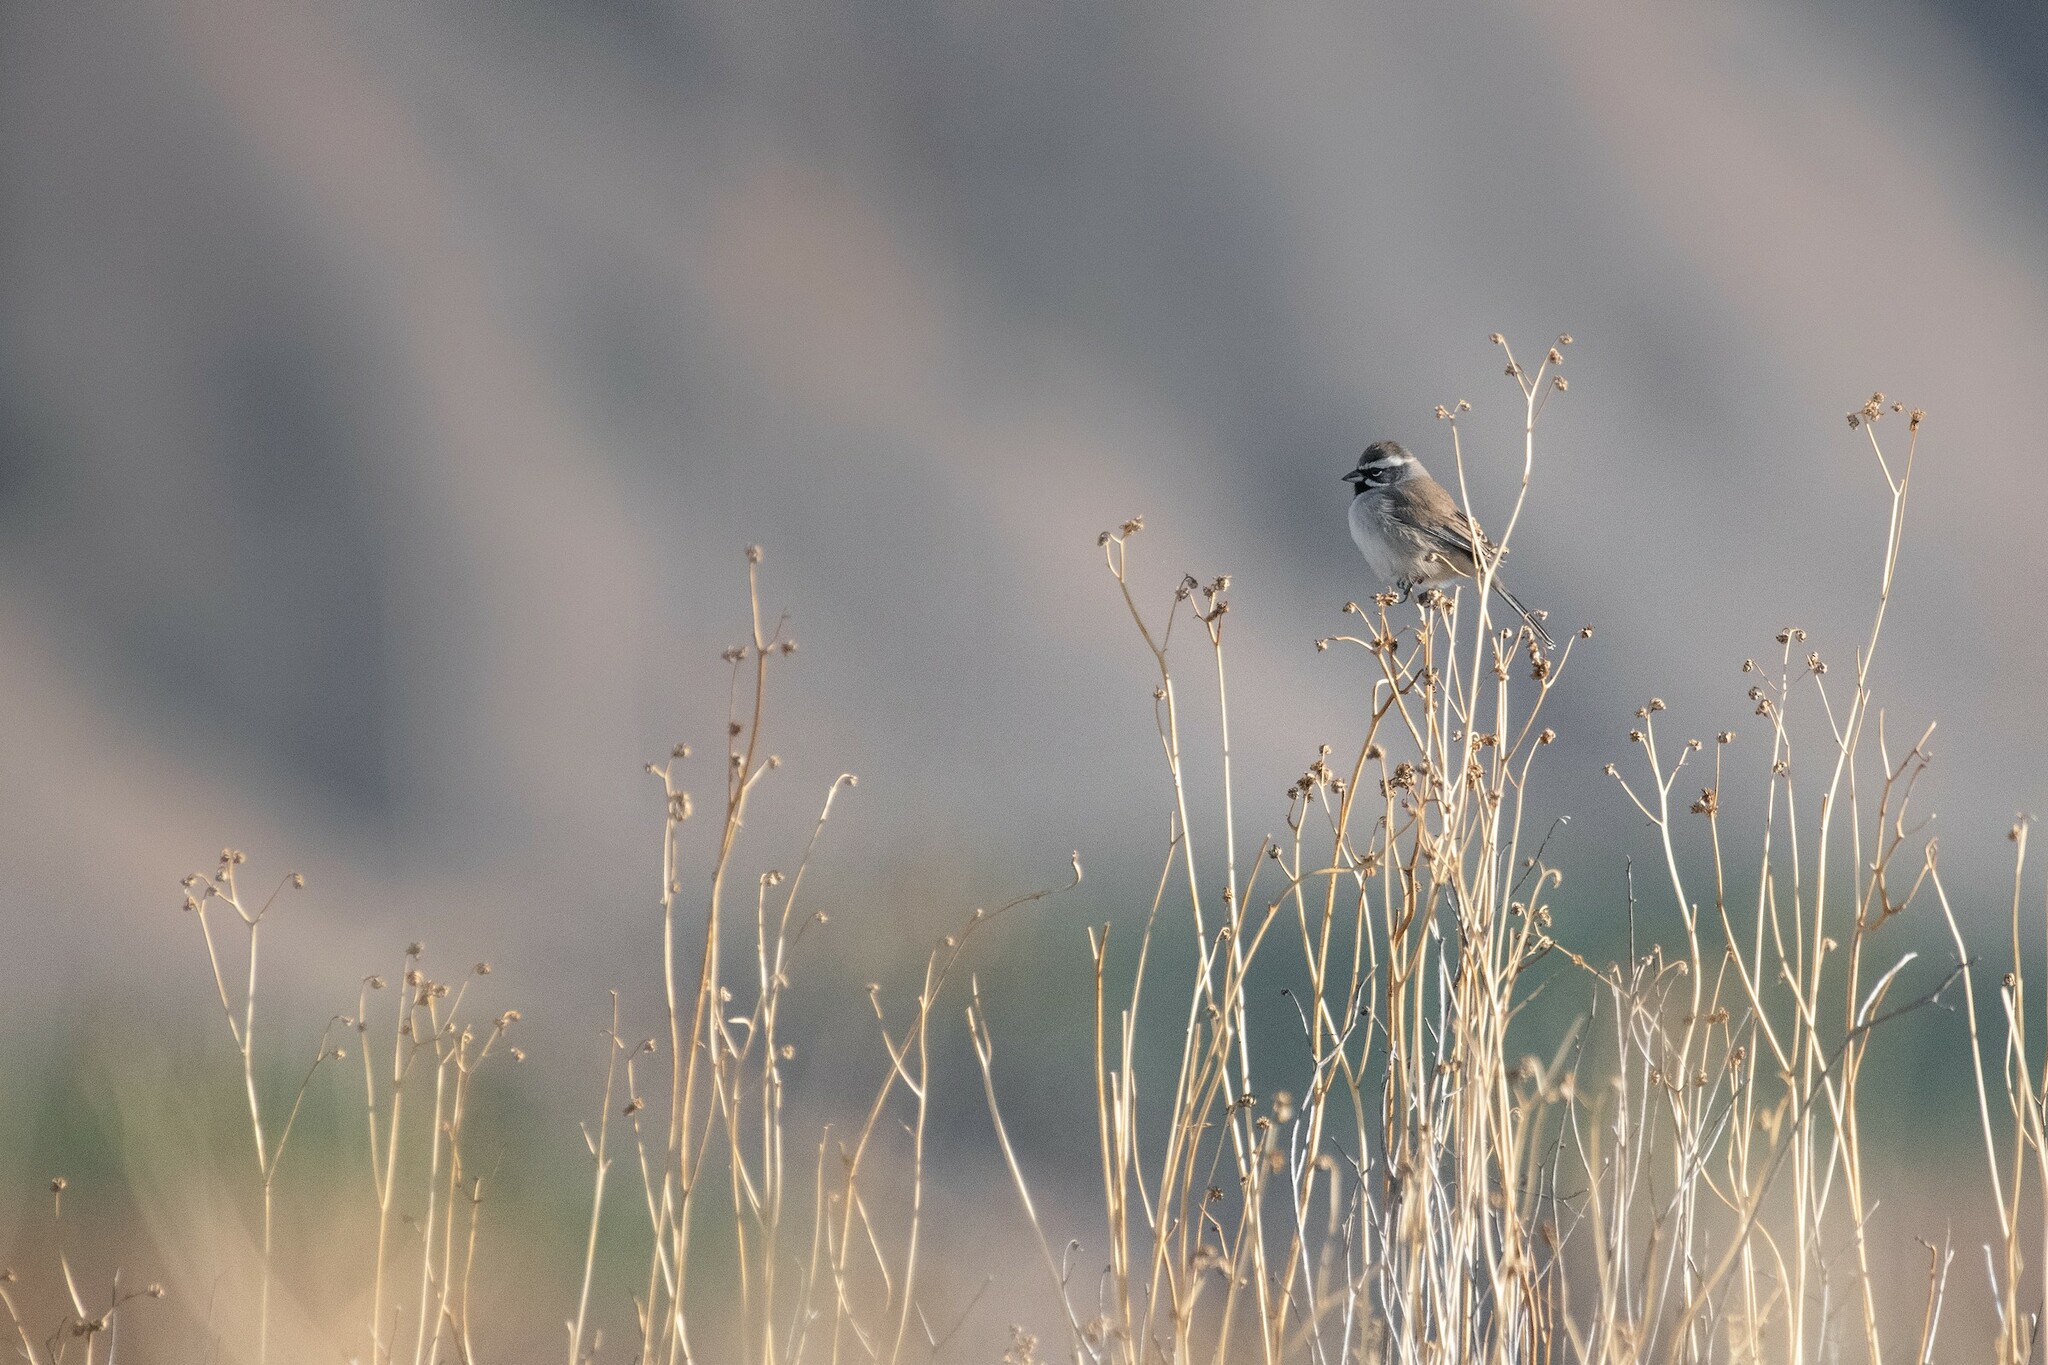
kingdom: Animalia
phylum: Chordata
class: Aves
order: Passeriformes
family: Passerellidae
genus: Amphispiza
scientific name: Amphispiza bilineata
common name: Black-throated sparrow
